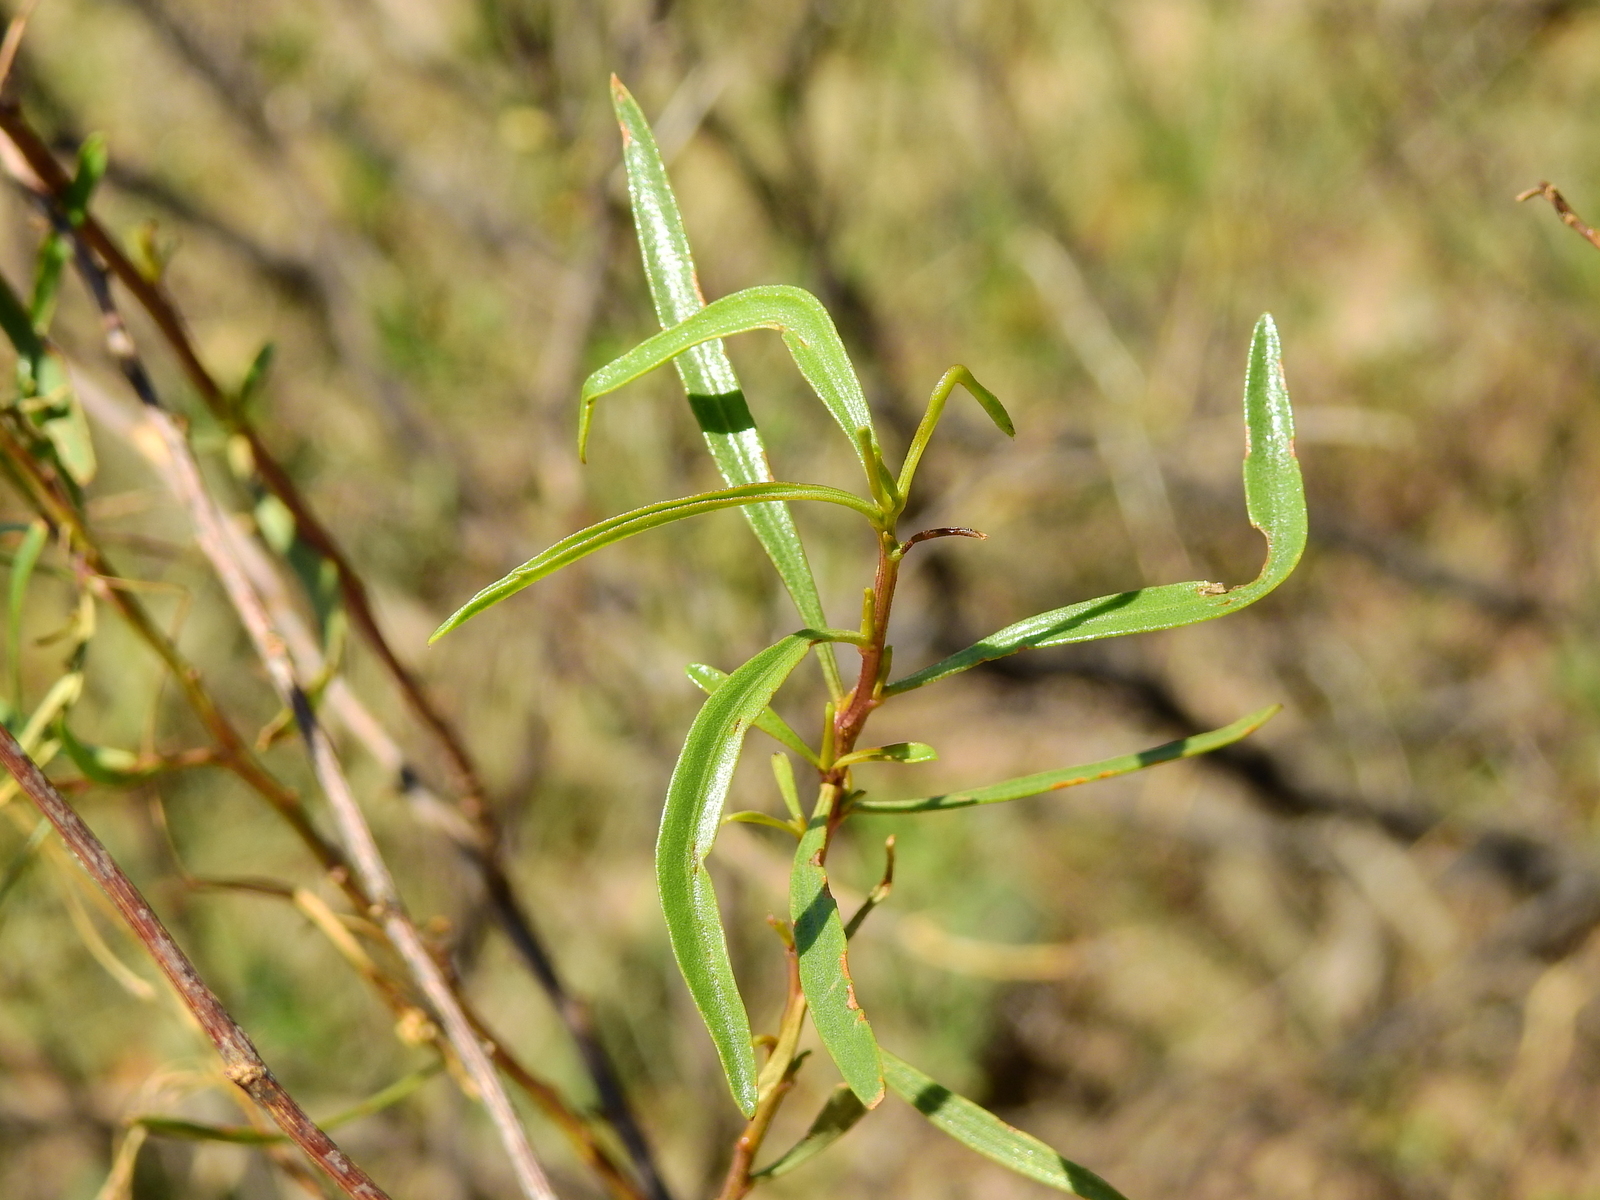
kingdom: Plantae
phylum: Tracheophyta
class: Magnoliopsida
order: Asterales
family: Asteraceae
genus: Baccharis
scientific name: Baccharis salicifolia
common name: Sticky baccharis
